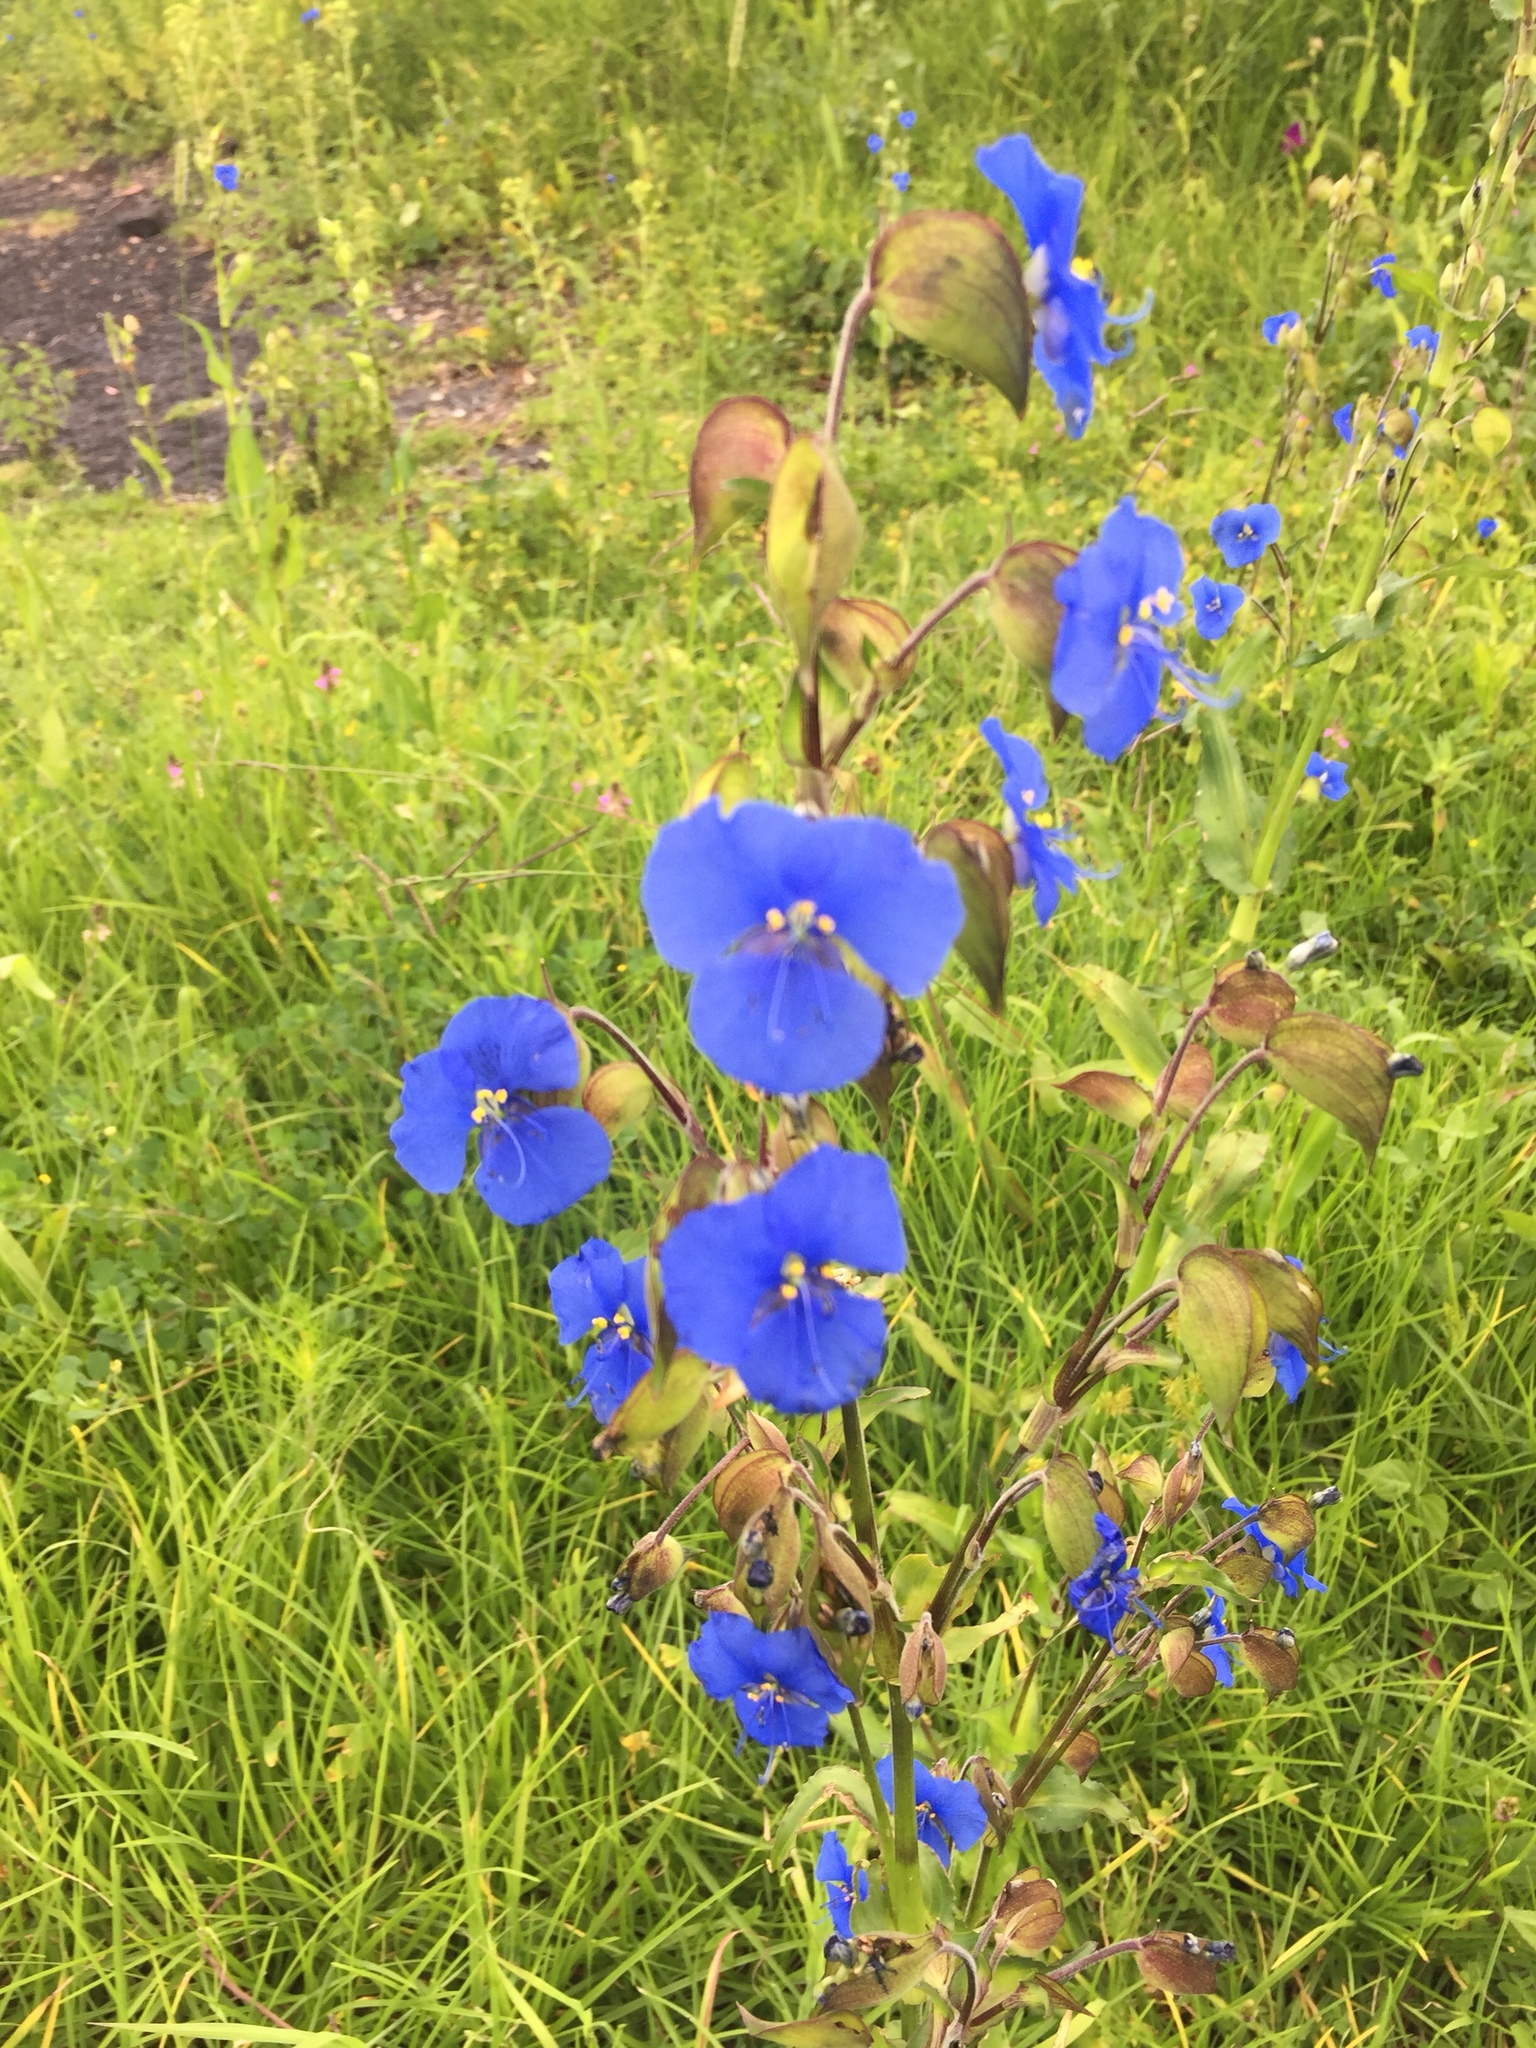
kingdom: Plantae
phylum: Tracheophyta
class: Liliopsida
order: Commelinales
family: Commelinaceae
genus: Commelina
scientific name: Commelina tuberosa
